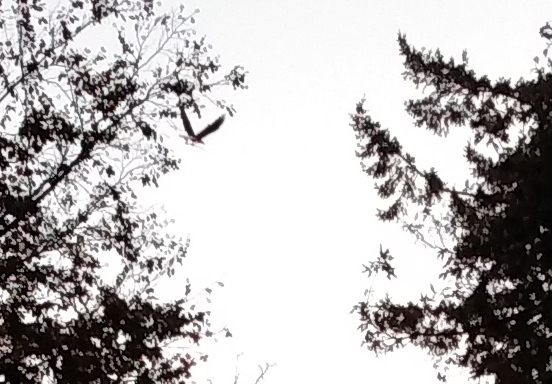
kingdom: Animalia
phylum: Chordata
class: Aves
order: Accipitriformes
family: Accipitridae
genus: Haliaeetus
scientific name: Haliaeetus leucocephalus
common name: Bald eagle
